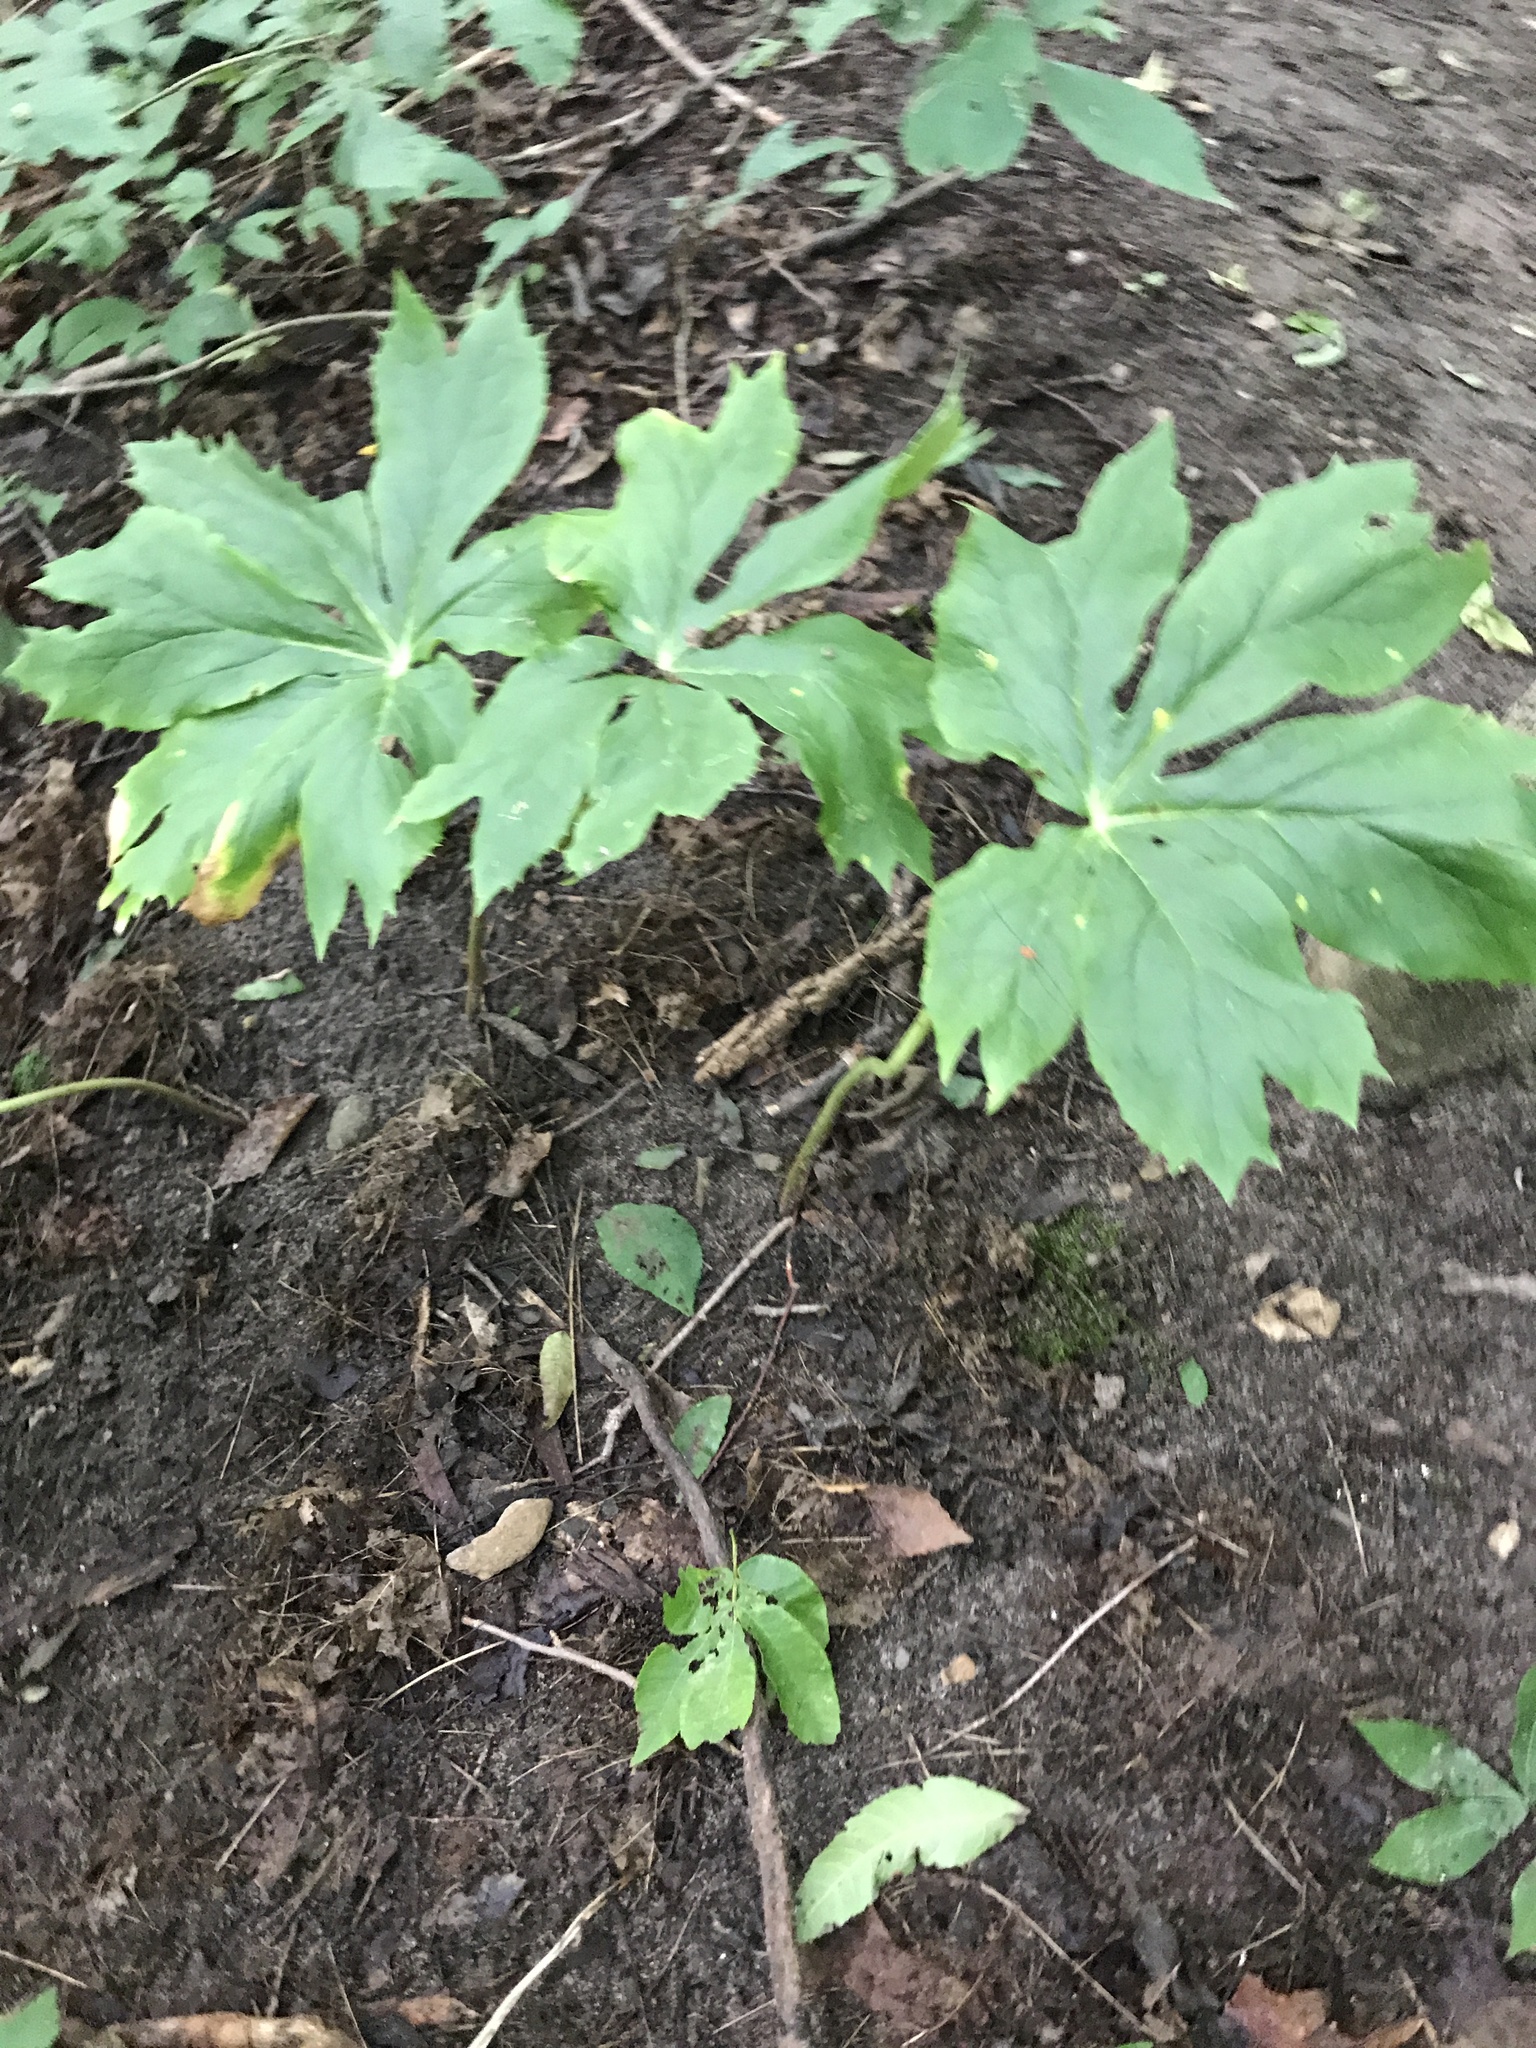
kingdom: Plantae
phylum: Tracheophyta
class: Magnoliopsida
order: Ranunculales
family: Berberidaceae
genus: Podophyllum
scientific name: Podophyllum peltatum
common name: Wild mandrake
